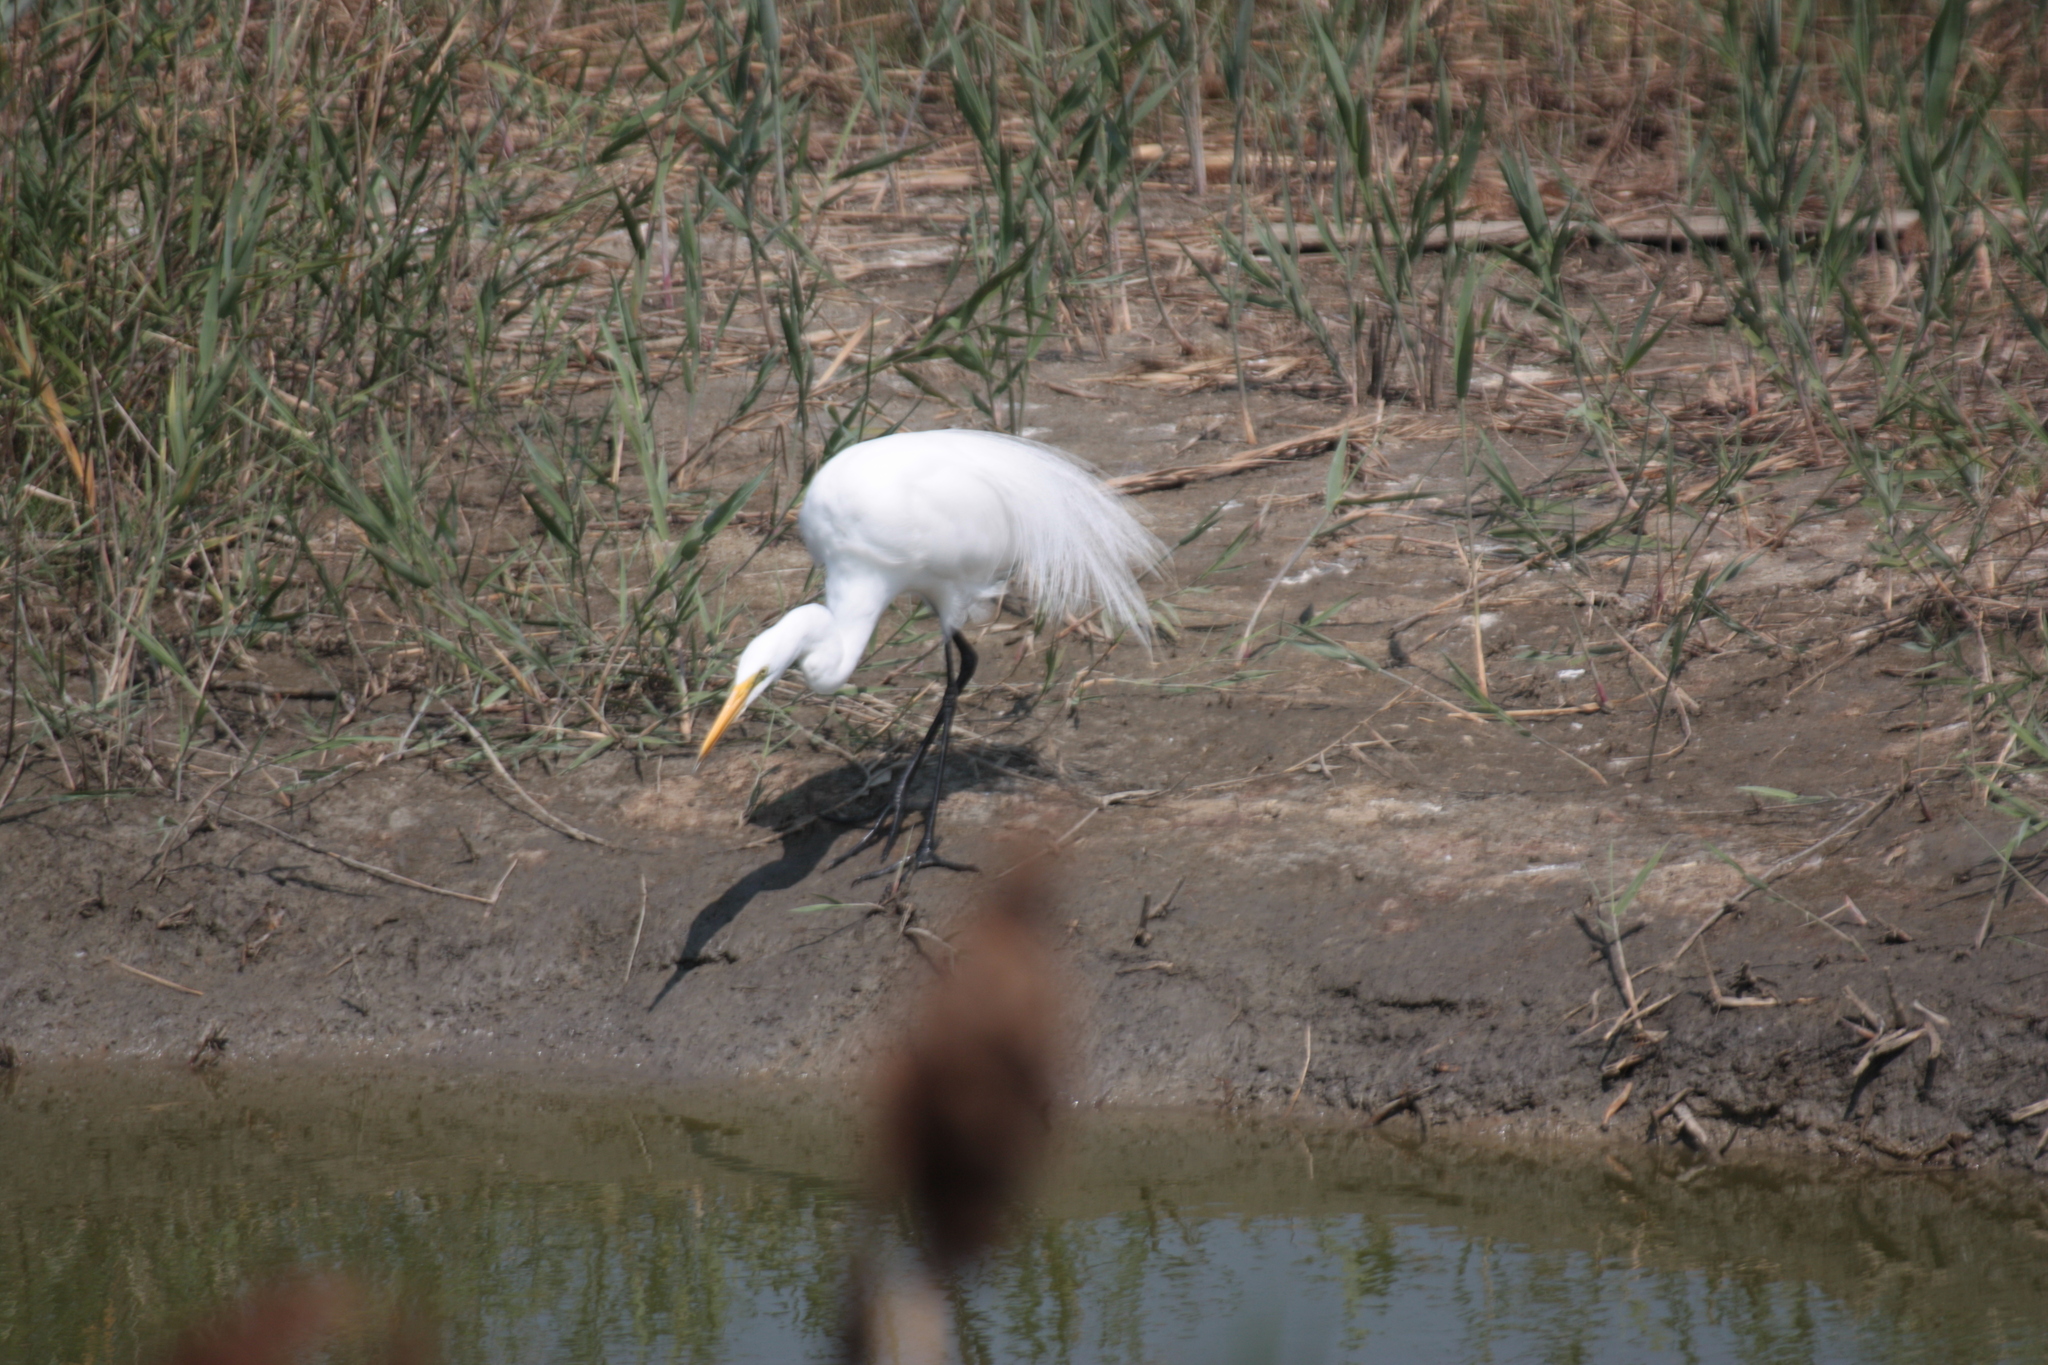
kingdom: Animalia
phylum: Chordata
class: Aves
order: Pelecaniformes
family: Ardeidae
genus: Ardea
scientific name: Ardea alba
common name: Great egret
